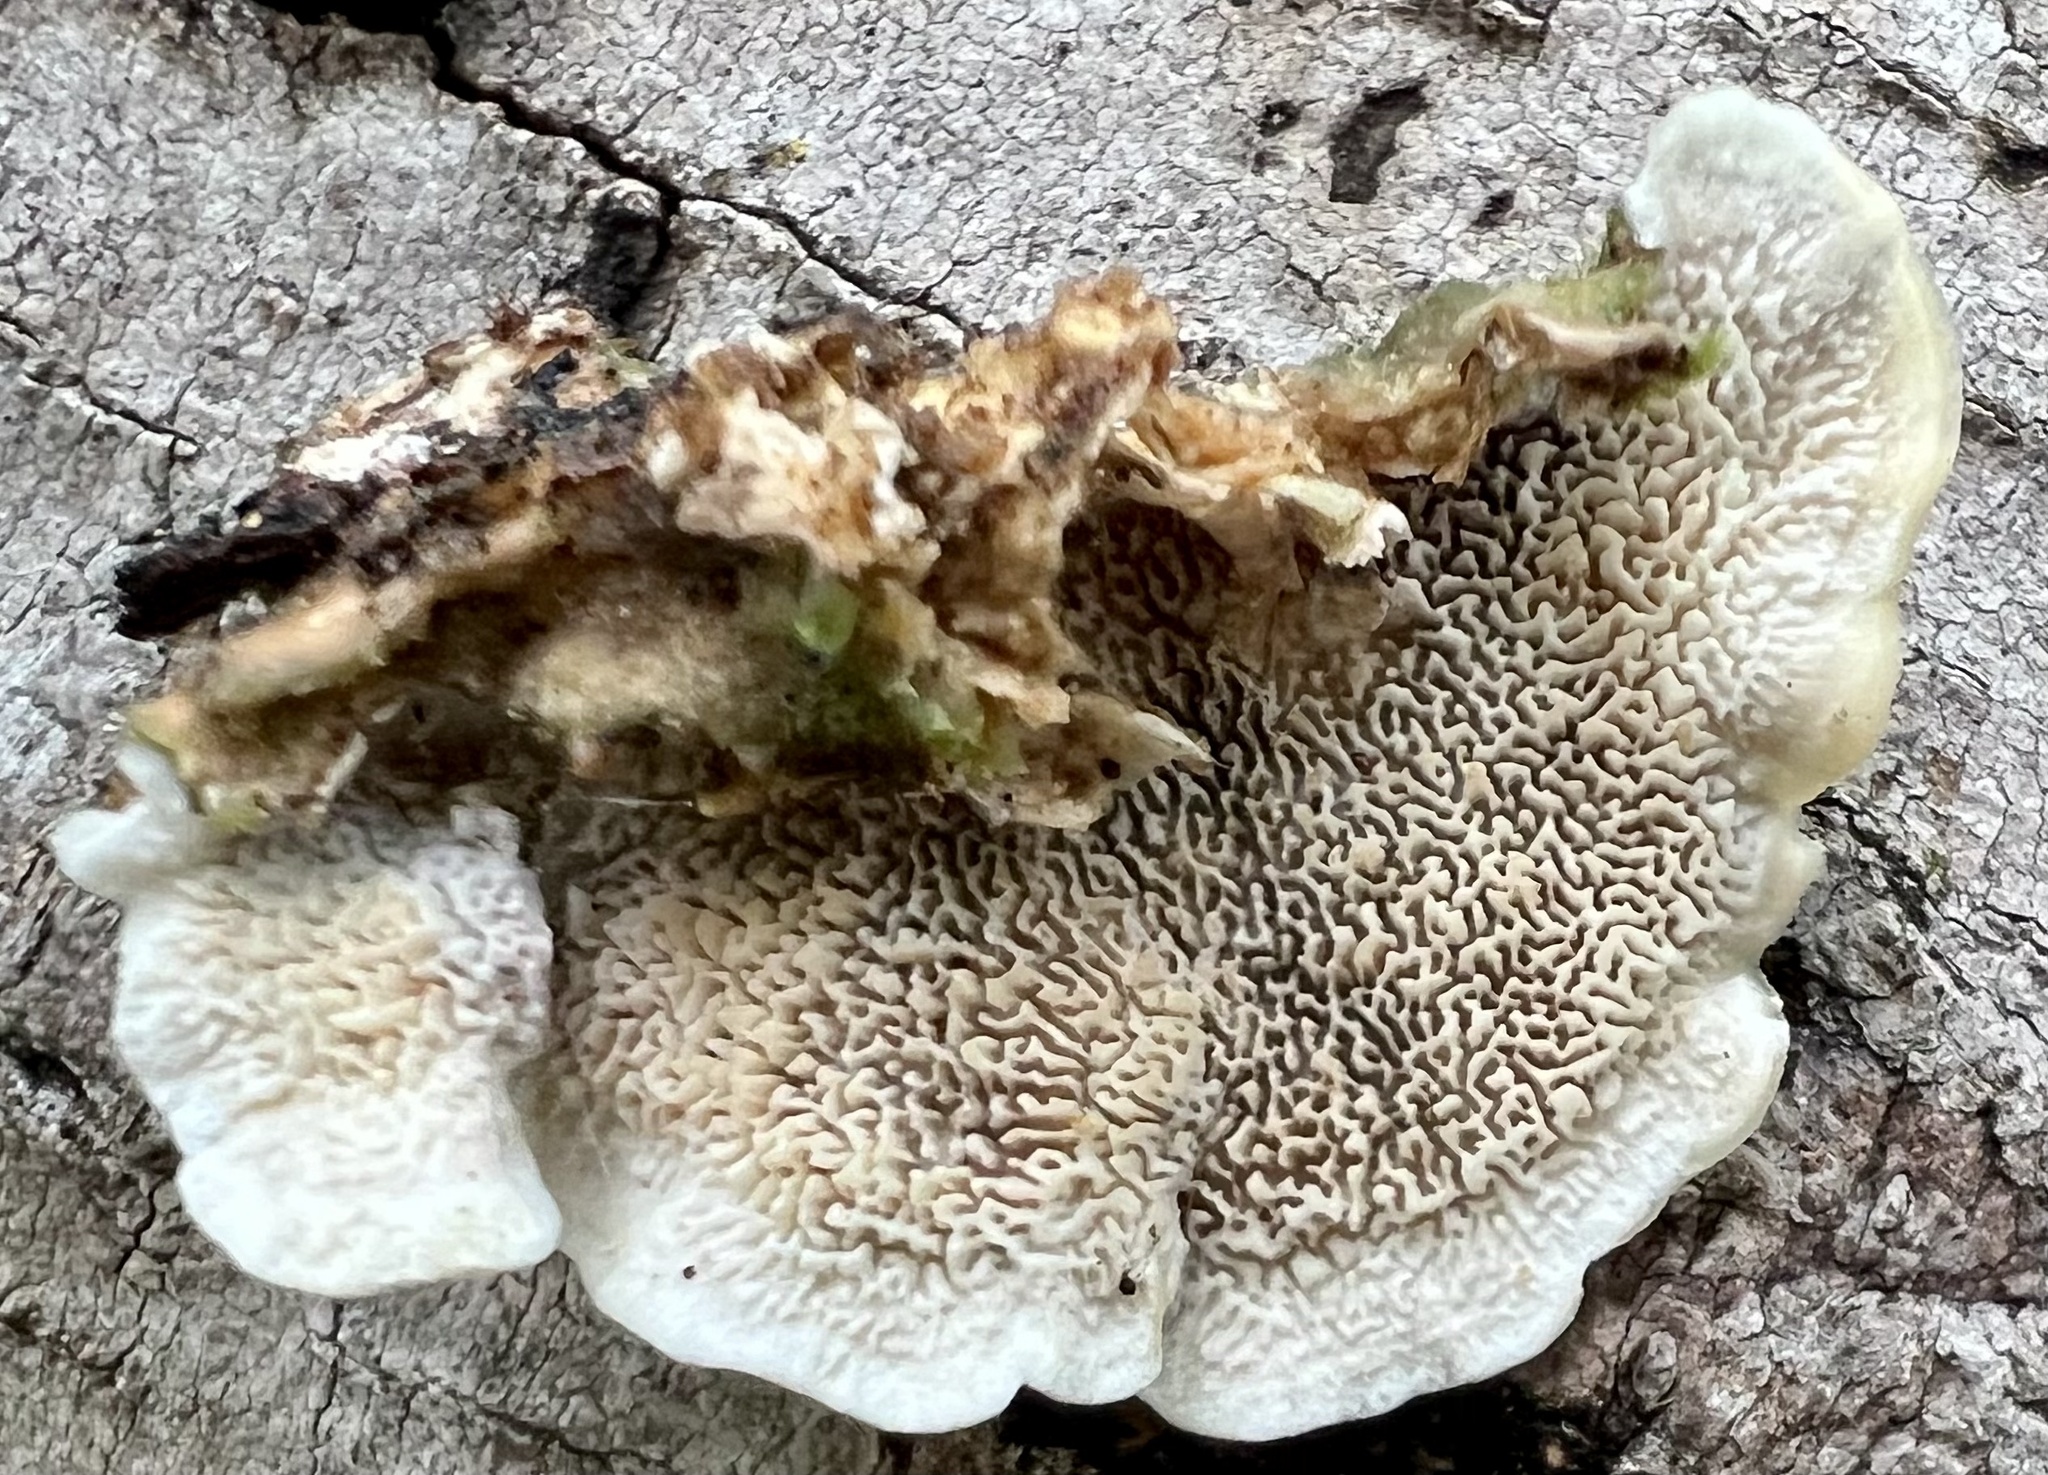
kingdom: Fungi
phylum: Basidiomycota
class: Agaricomycetes
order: Polyporales
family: Cerrenaceae
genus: Cerrena
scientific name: Cerrena unicolor
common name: Mossy maze polypore
